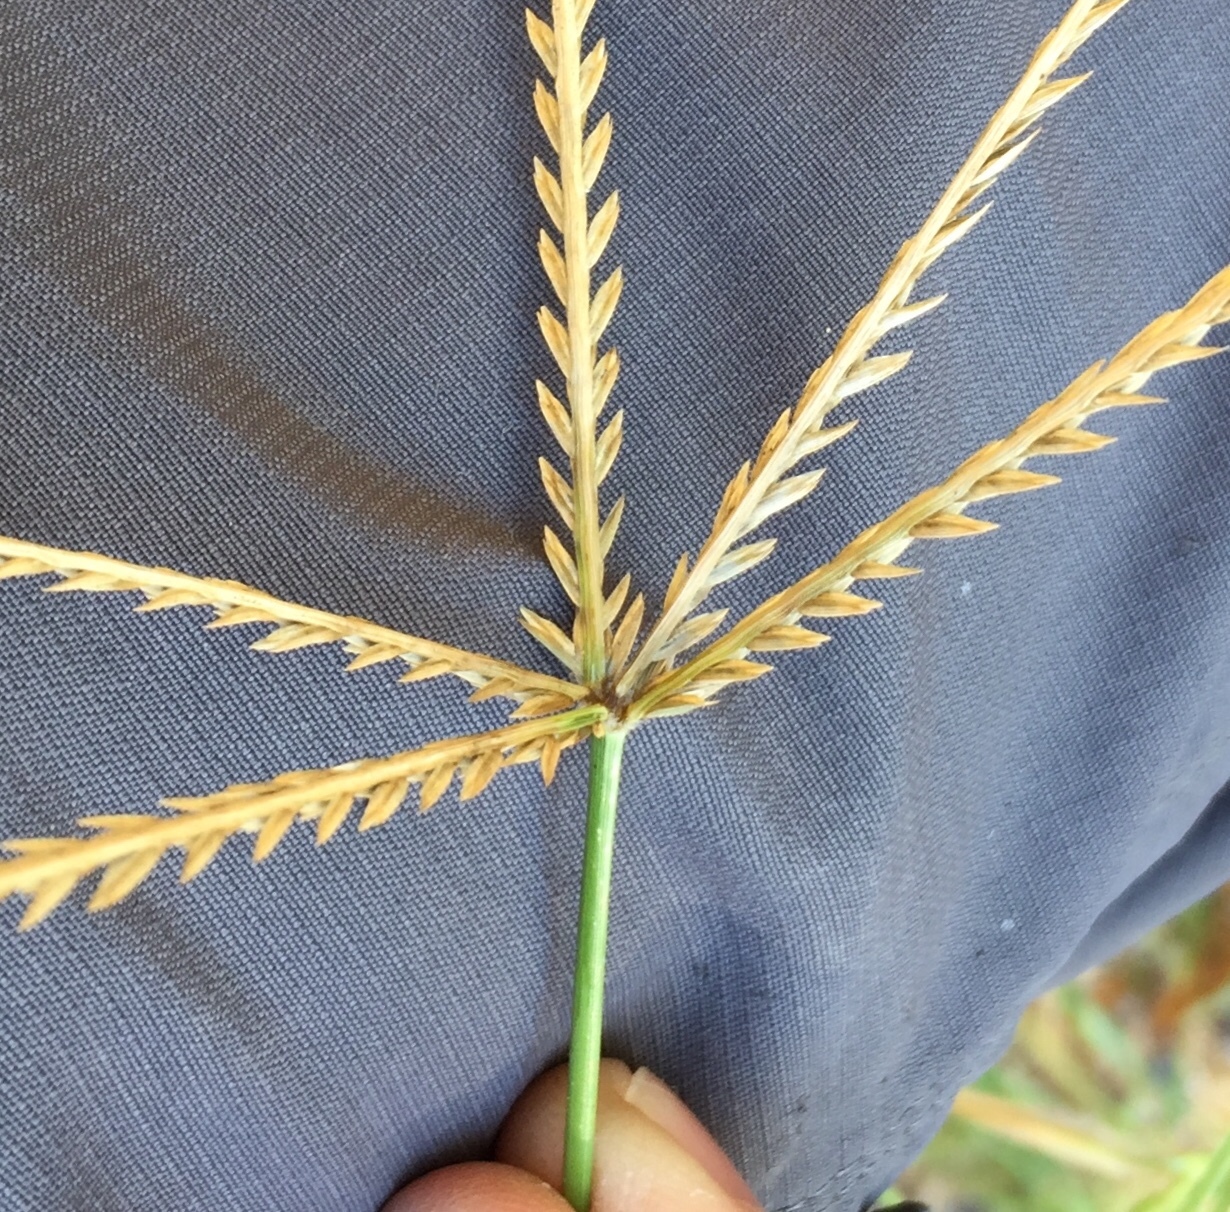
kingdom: Plantae
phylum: Tracheophyta
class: Liliopsida
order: Poales
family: Poaceae
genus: Eleusine
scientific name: Eleusine indica
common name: Yard-grass
